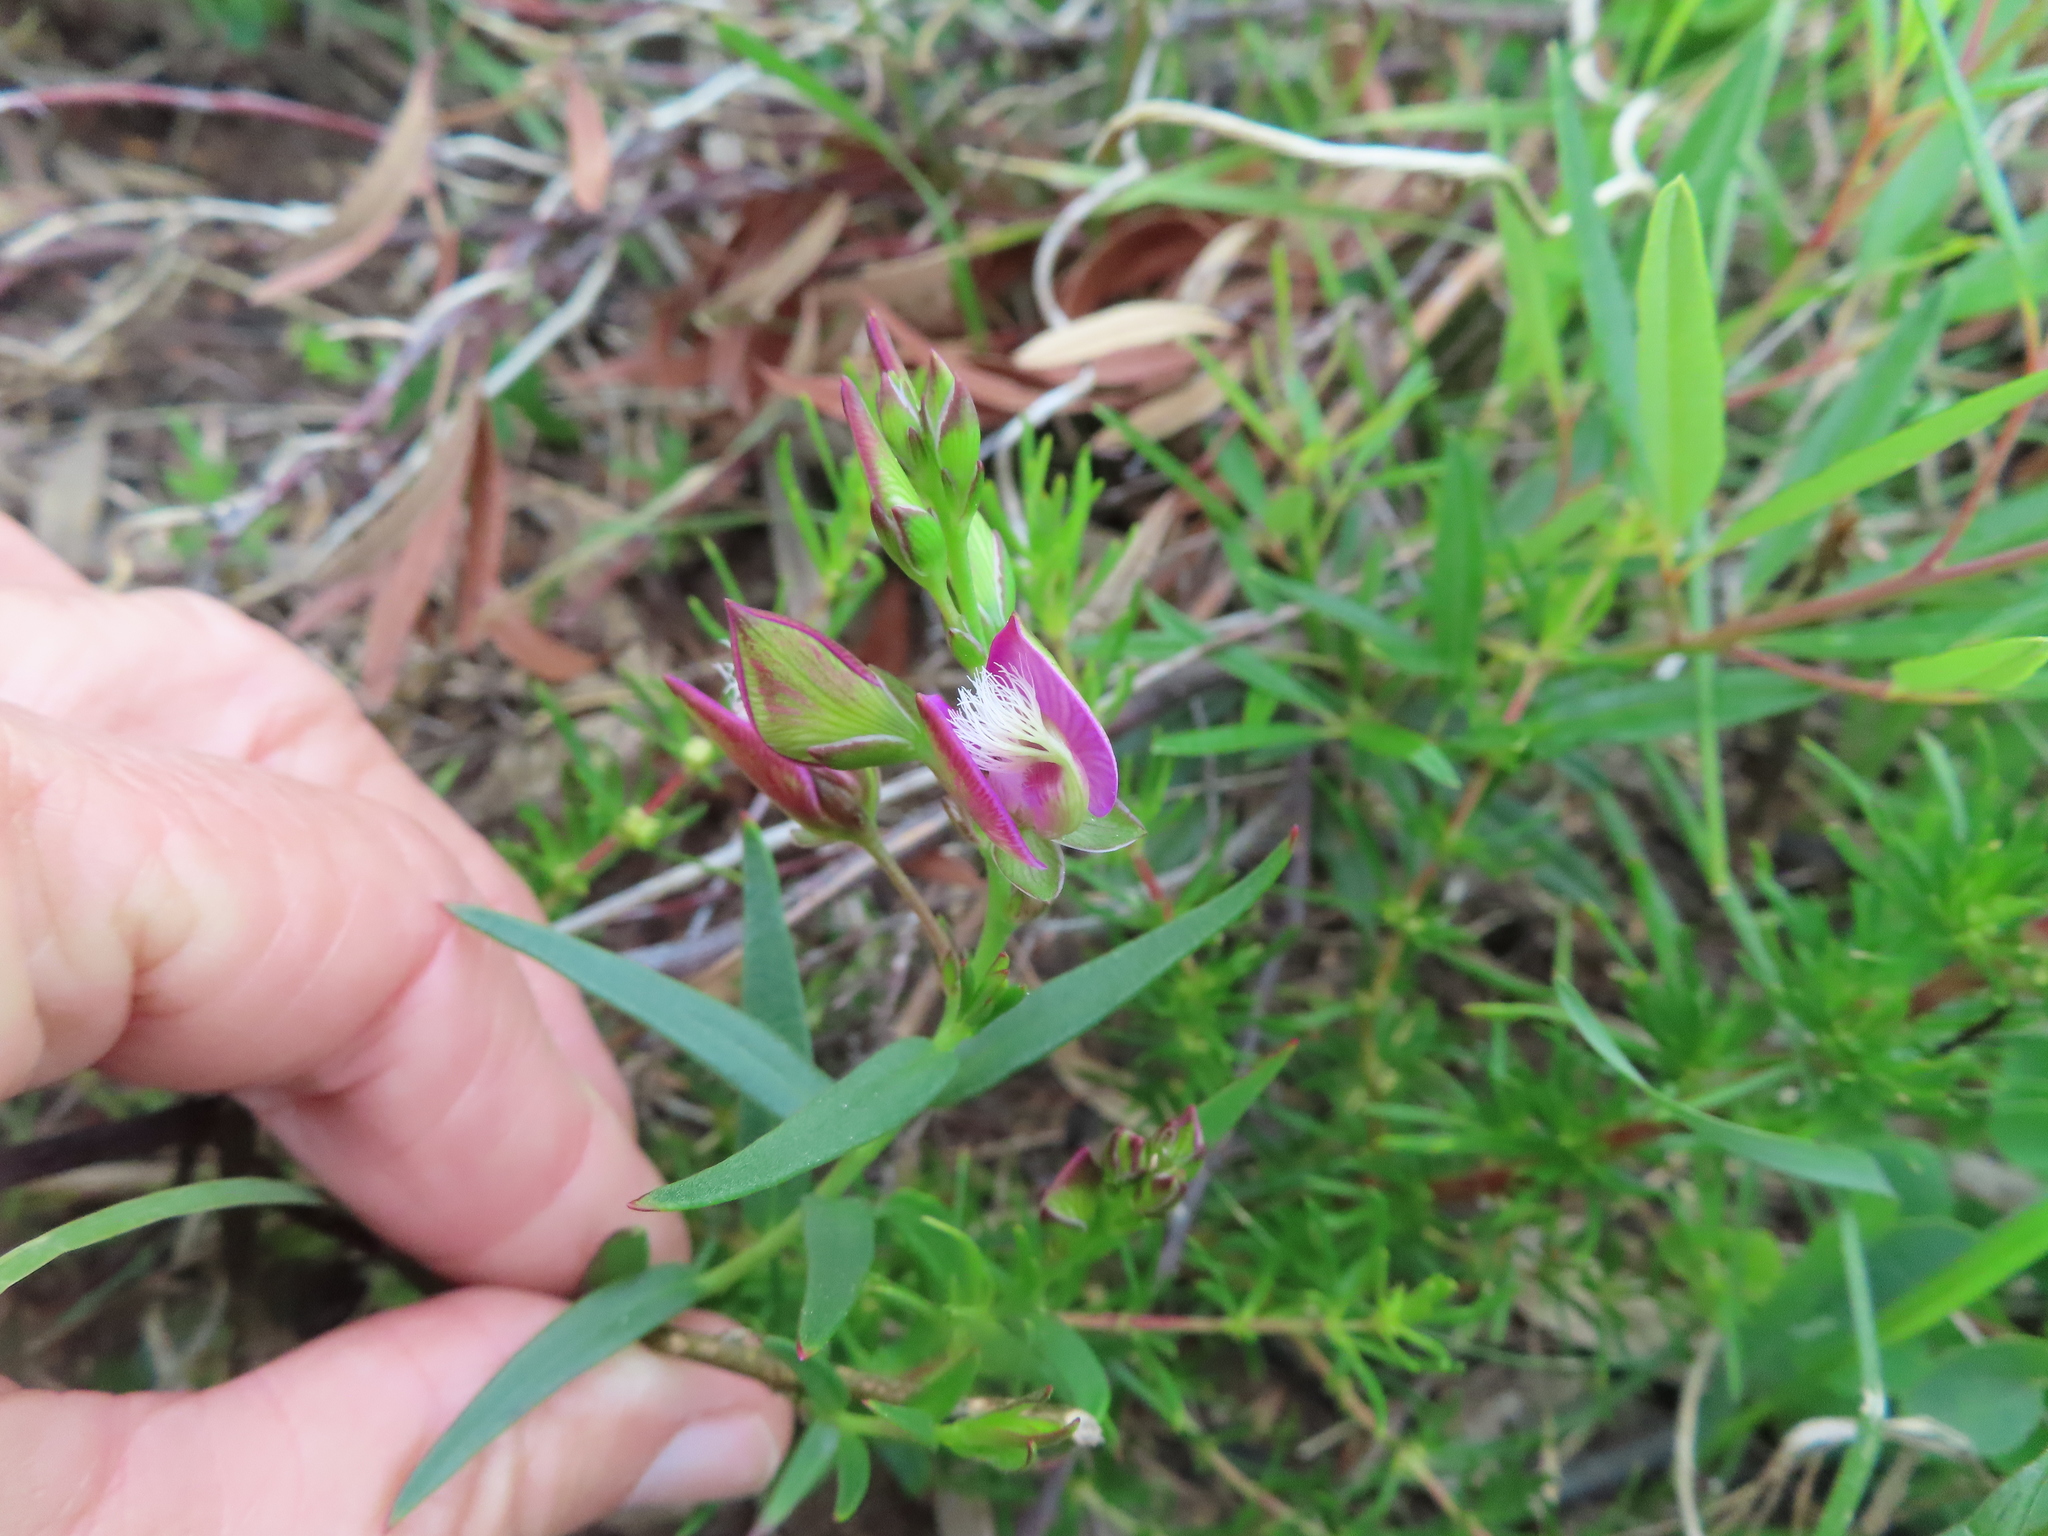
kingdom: Plantae
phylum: Tracheophyta
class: Magnoliopsida
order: Fabales
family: Polygalaceae
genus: Polygala
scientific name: Polygala bracteolata
